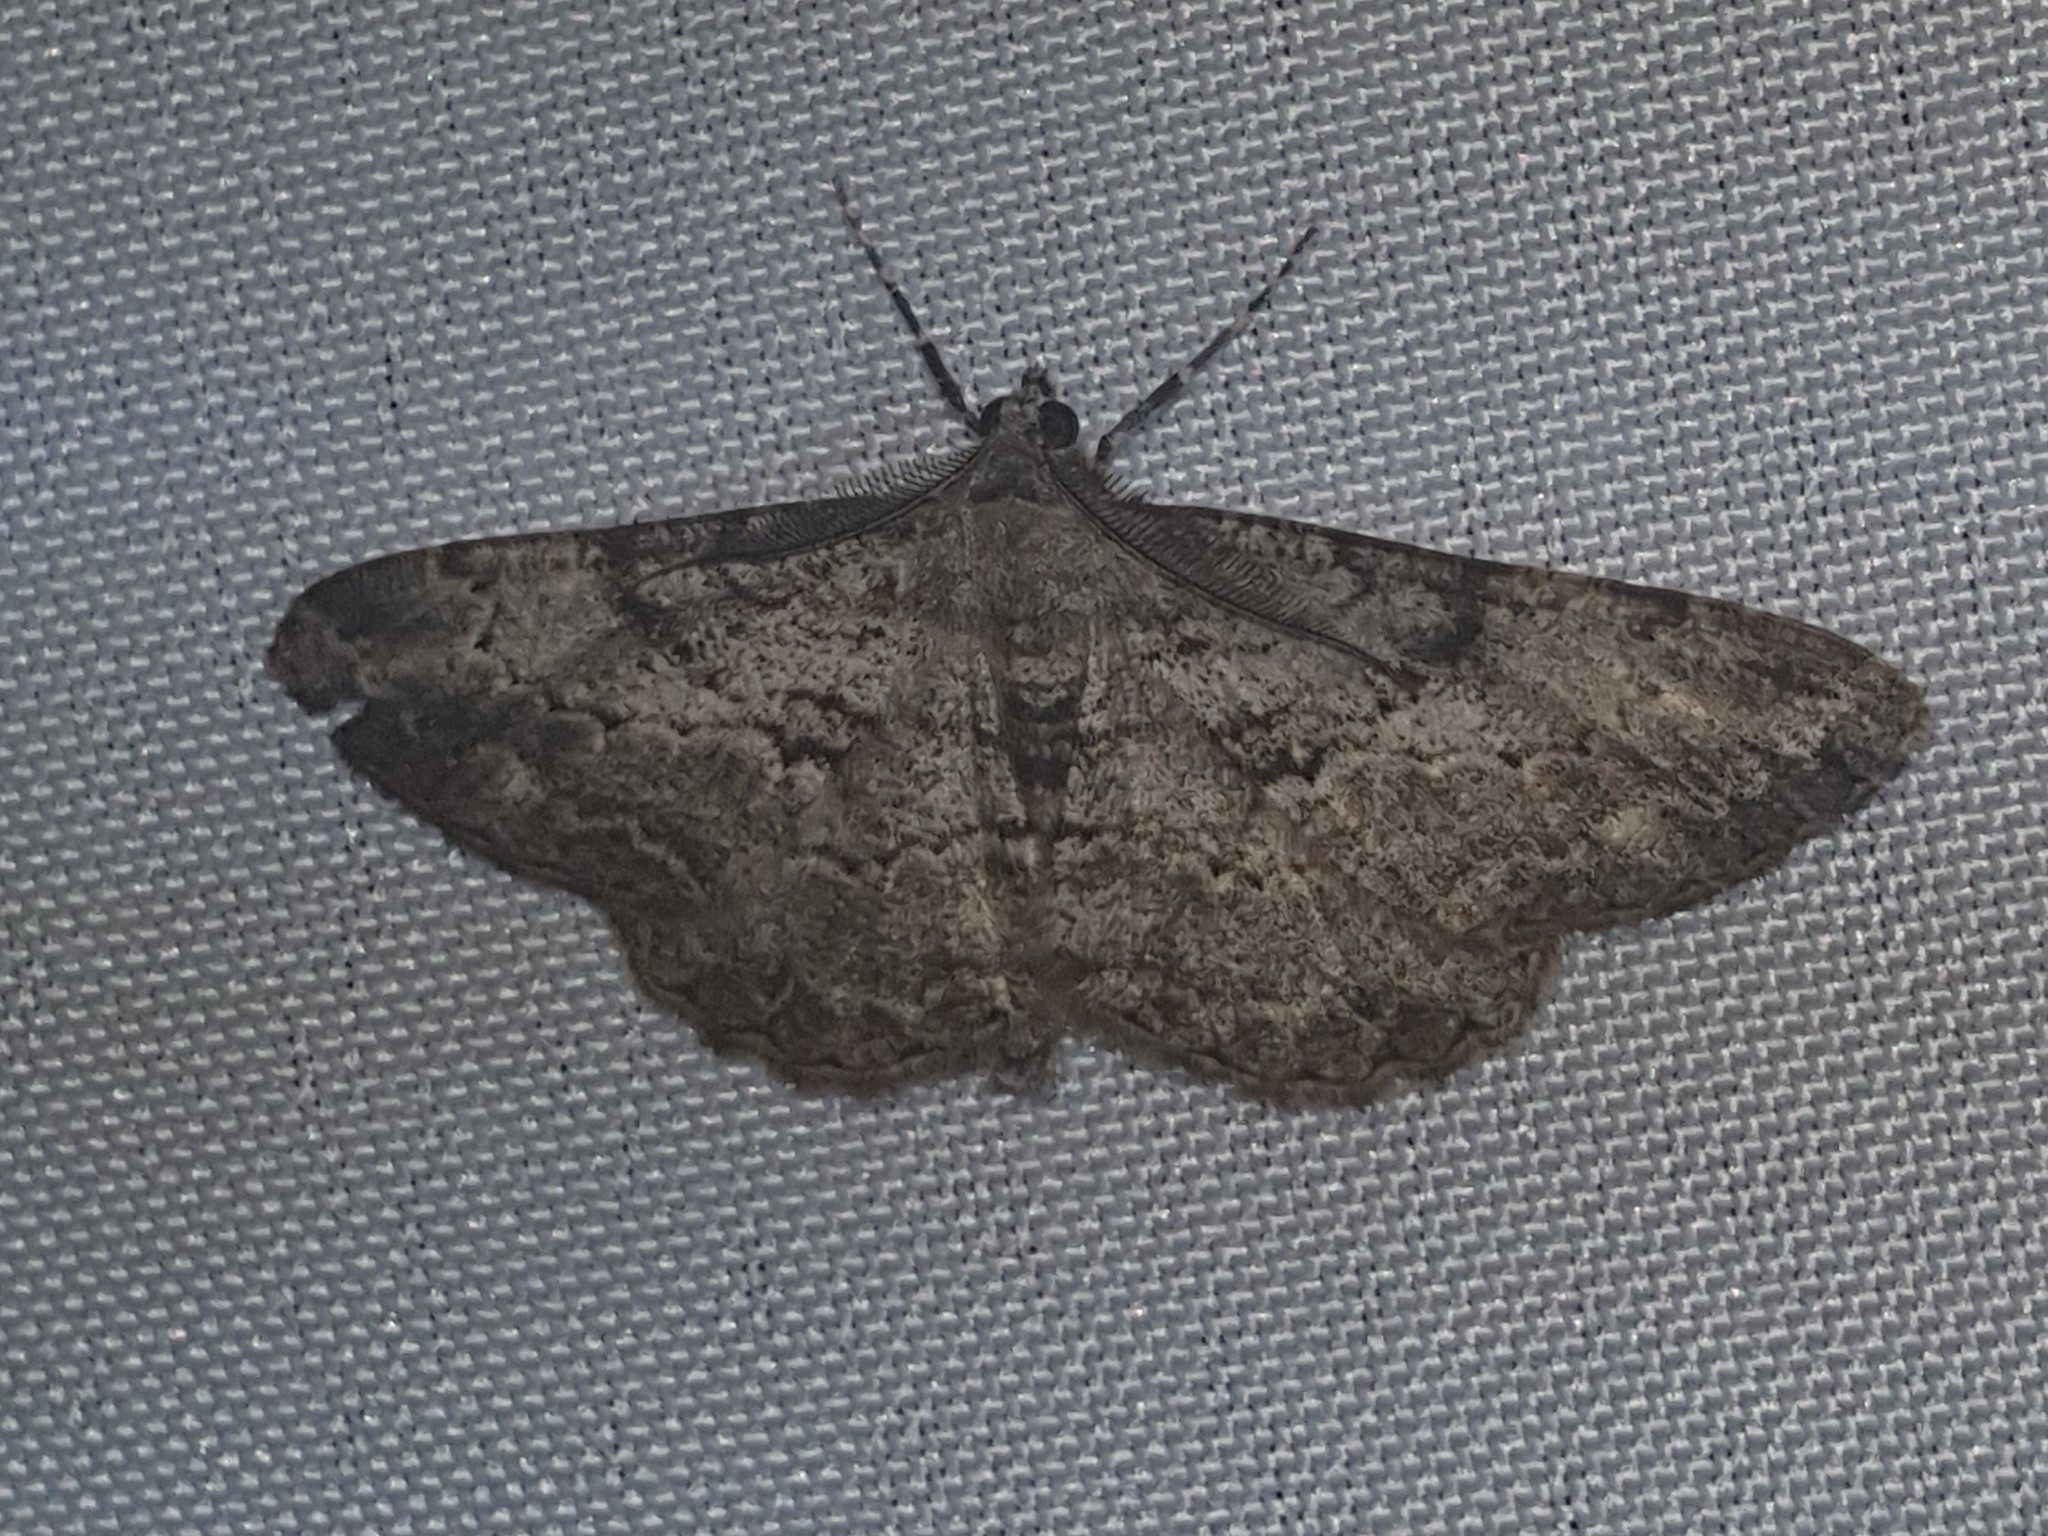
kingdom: Animalia
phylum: Arthropoda
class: Insecta
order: Lepidoptera
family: Geometridae
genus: Peribatodes
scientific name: Peribatodes rhomboidaria
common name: Willow beauty
